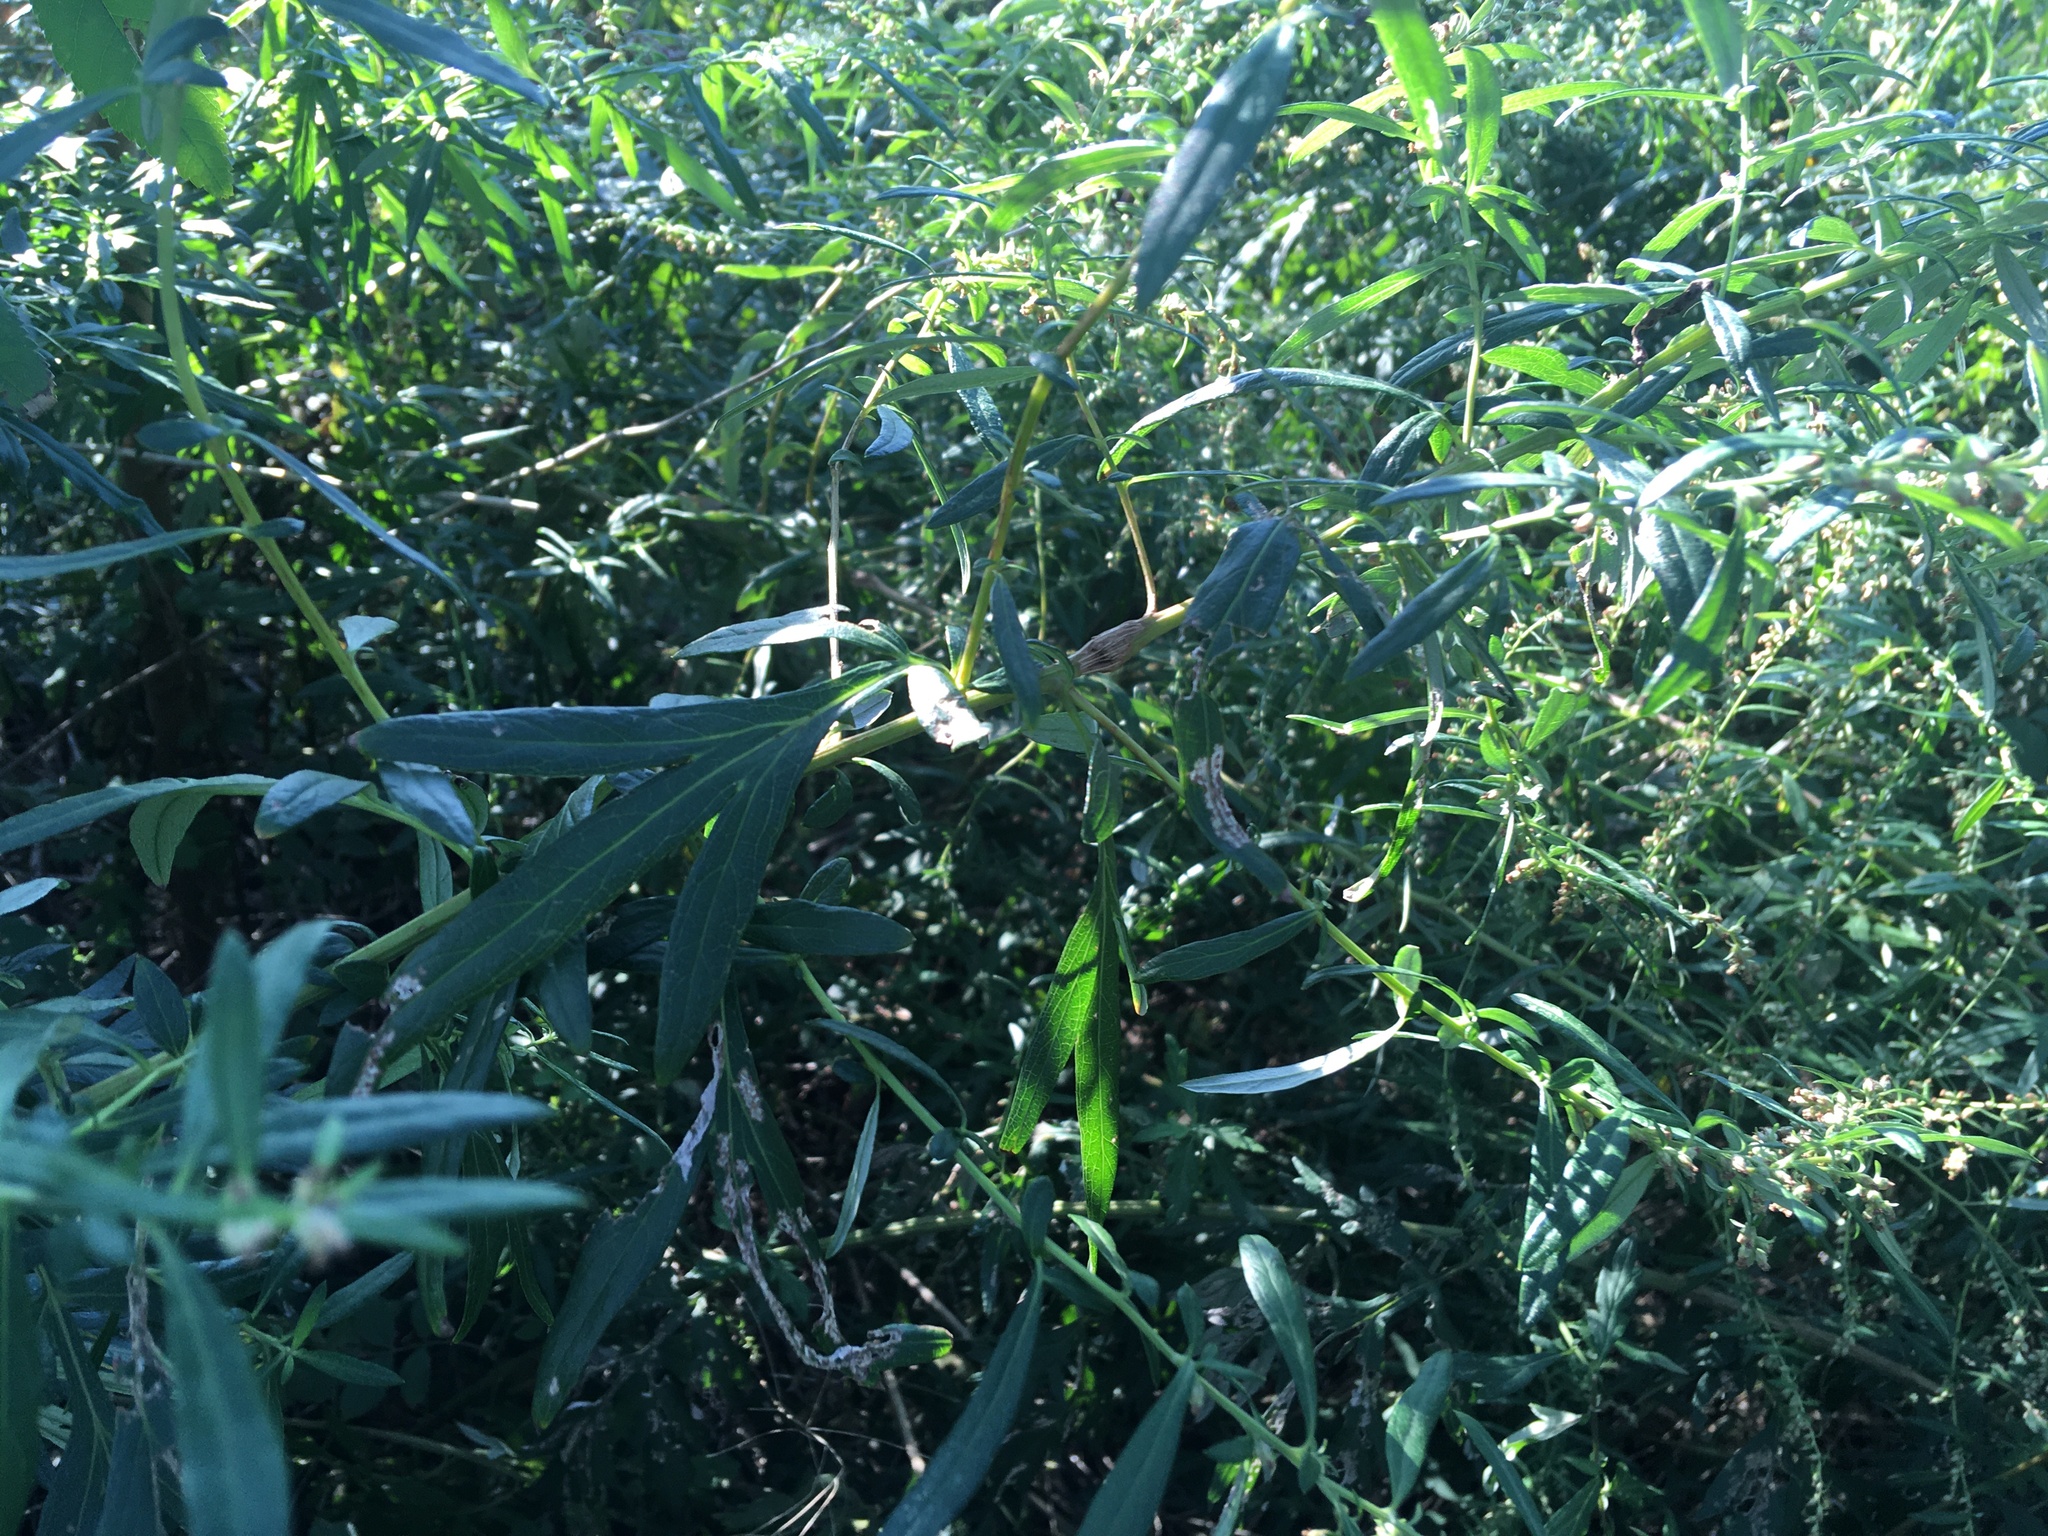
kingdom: Plantae
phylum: Tracheophyta
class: Magnoliopsida
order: Asterales
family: Asteraceae
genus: Artemisia
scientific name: Artemisia vulgaris
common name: Mugwort
